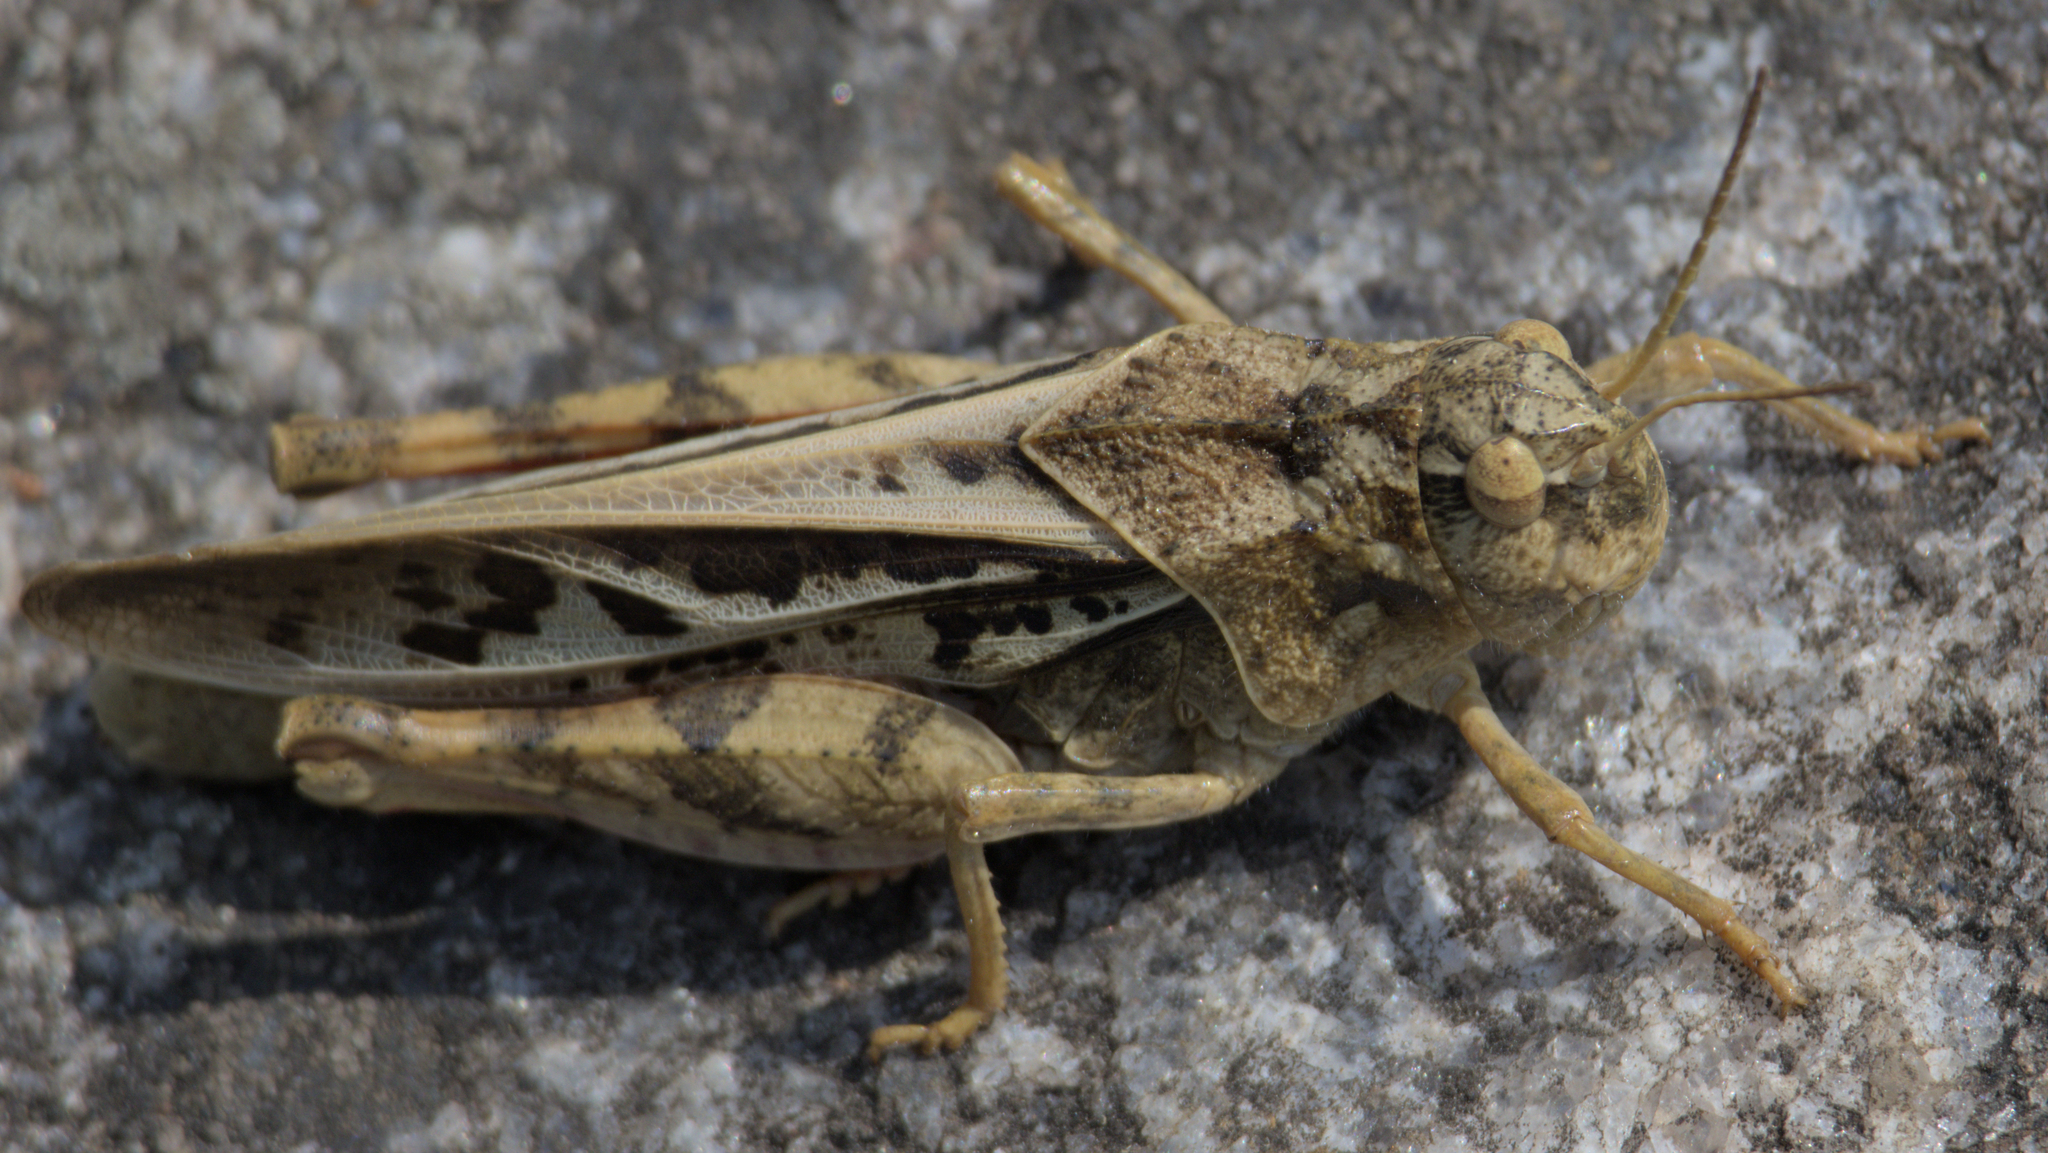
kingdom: Animalia
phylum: Arthropoda
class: Insecta
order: Orthoptera
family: Acrididae
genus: Pardalophora
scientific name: Pardalophora apiculata
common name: Coral-winged locust
